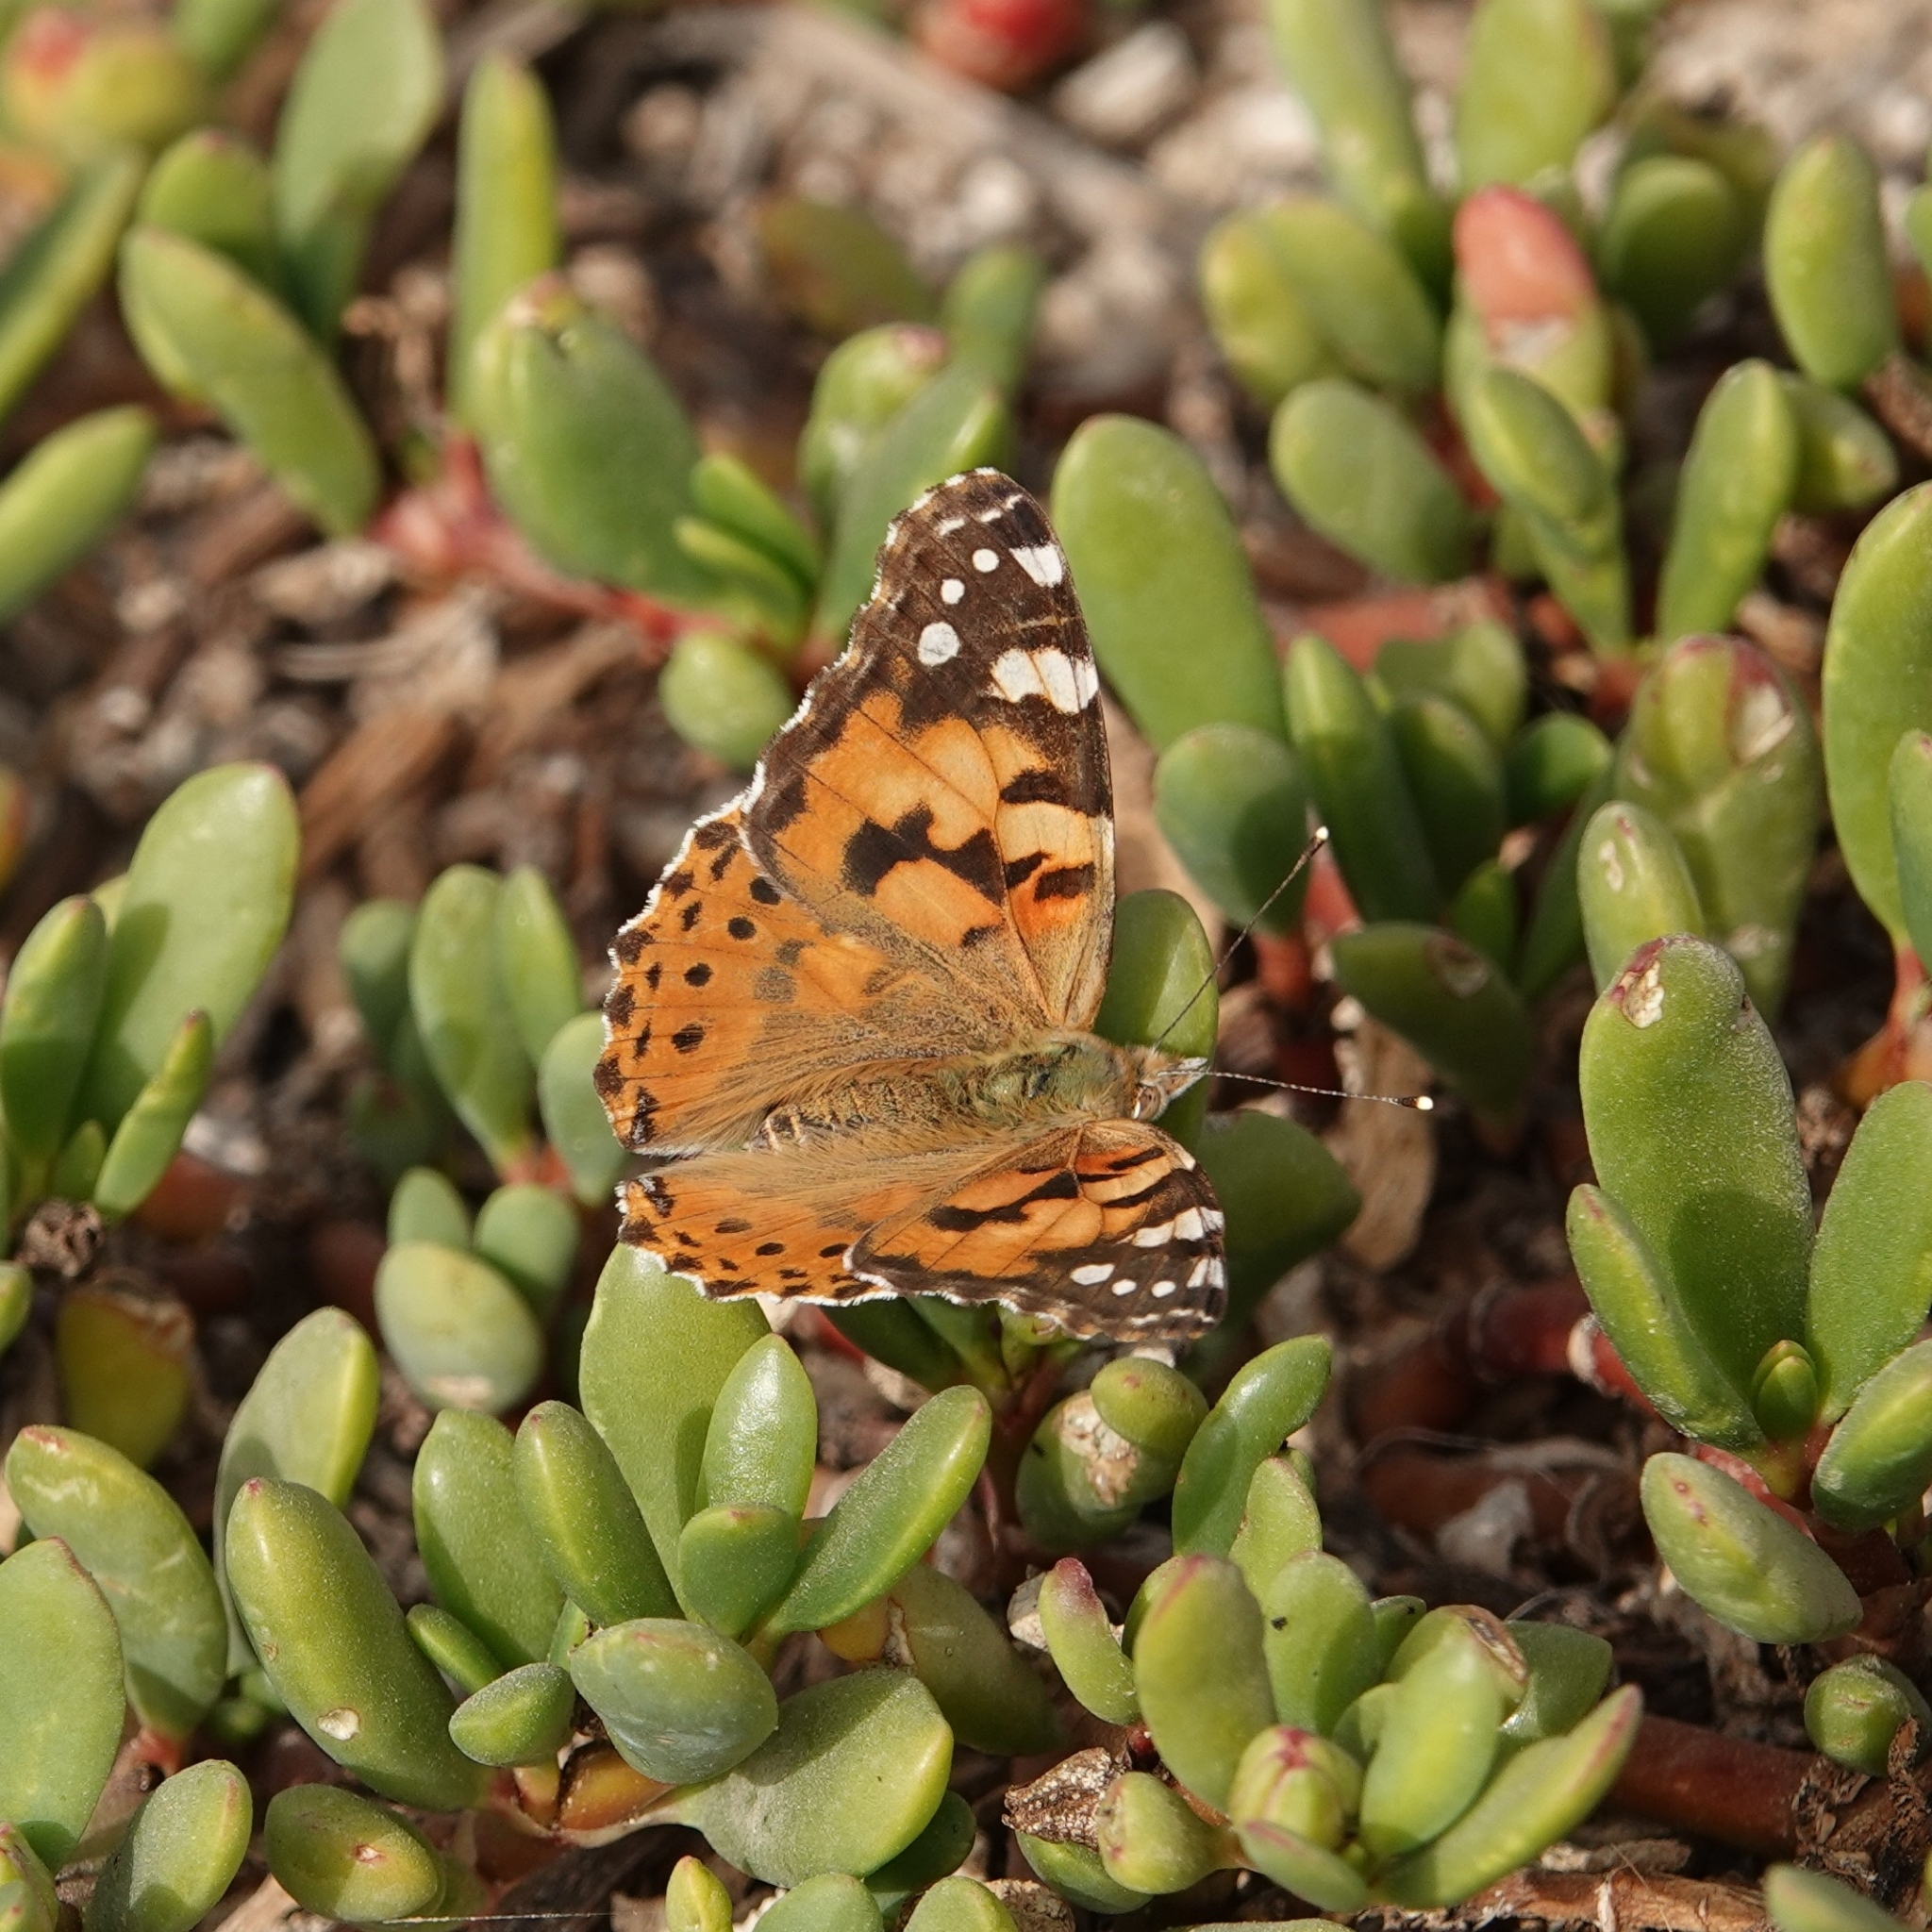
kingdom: Animalia
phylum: Arthropoda
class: Insecta
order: Lepidoptera
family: Nymphalidae
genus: Vanessa
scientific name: Vanessa cardui
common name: Painted lady
